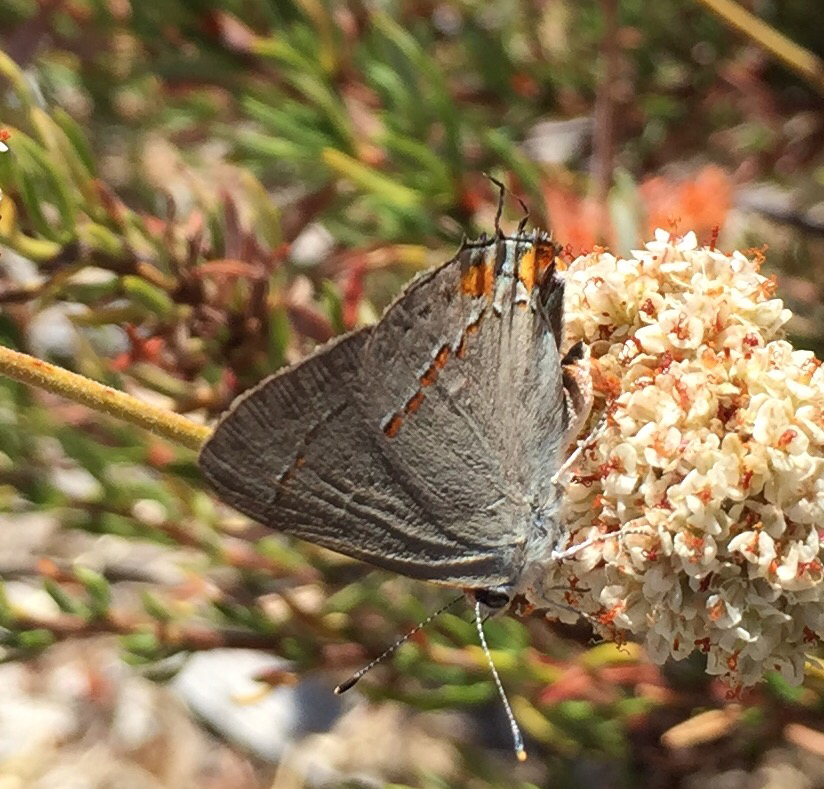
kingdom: Animalia
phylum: Arthropoda
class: Insecta
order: Lepidoptera
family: Lycaenidae
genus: Strymon
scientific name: Strymon melinus
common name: Gray hairstreak
